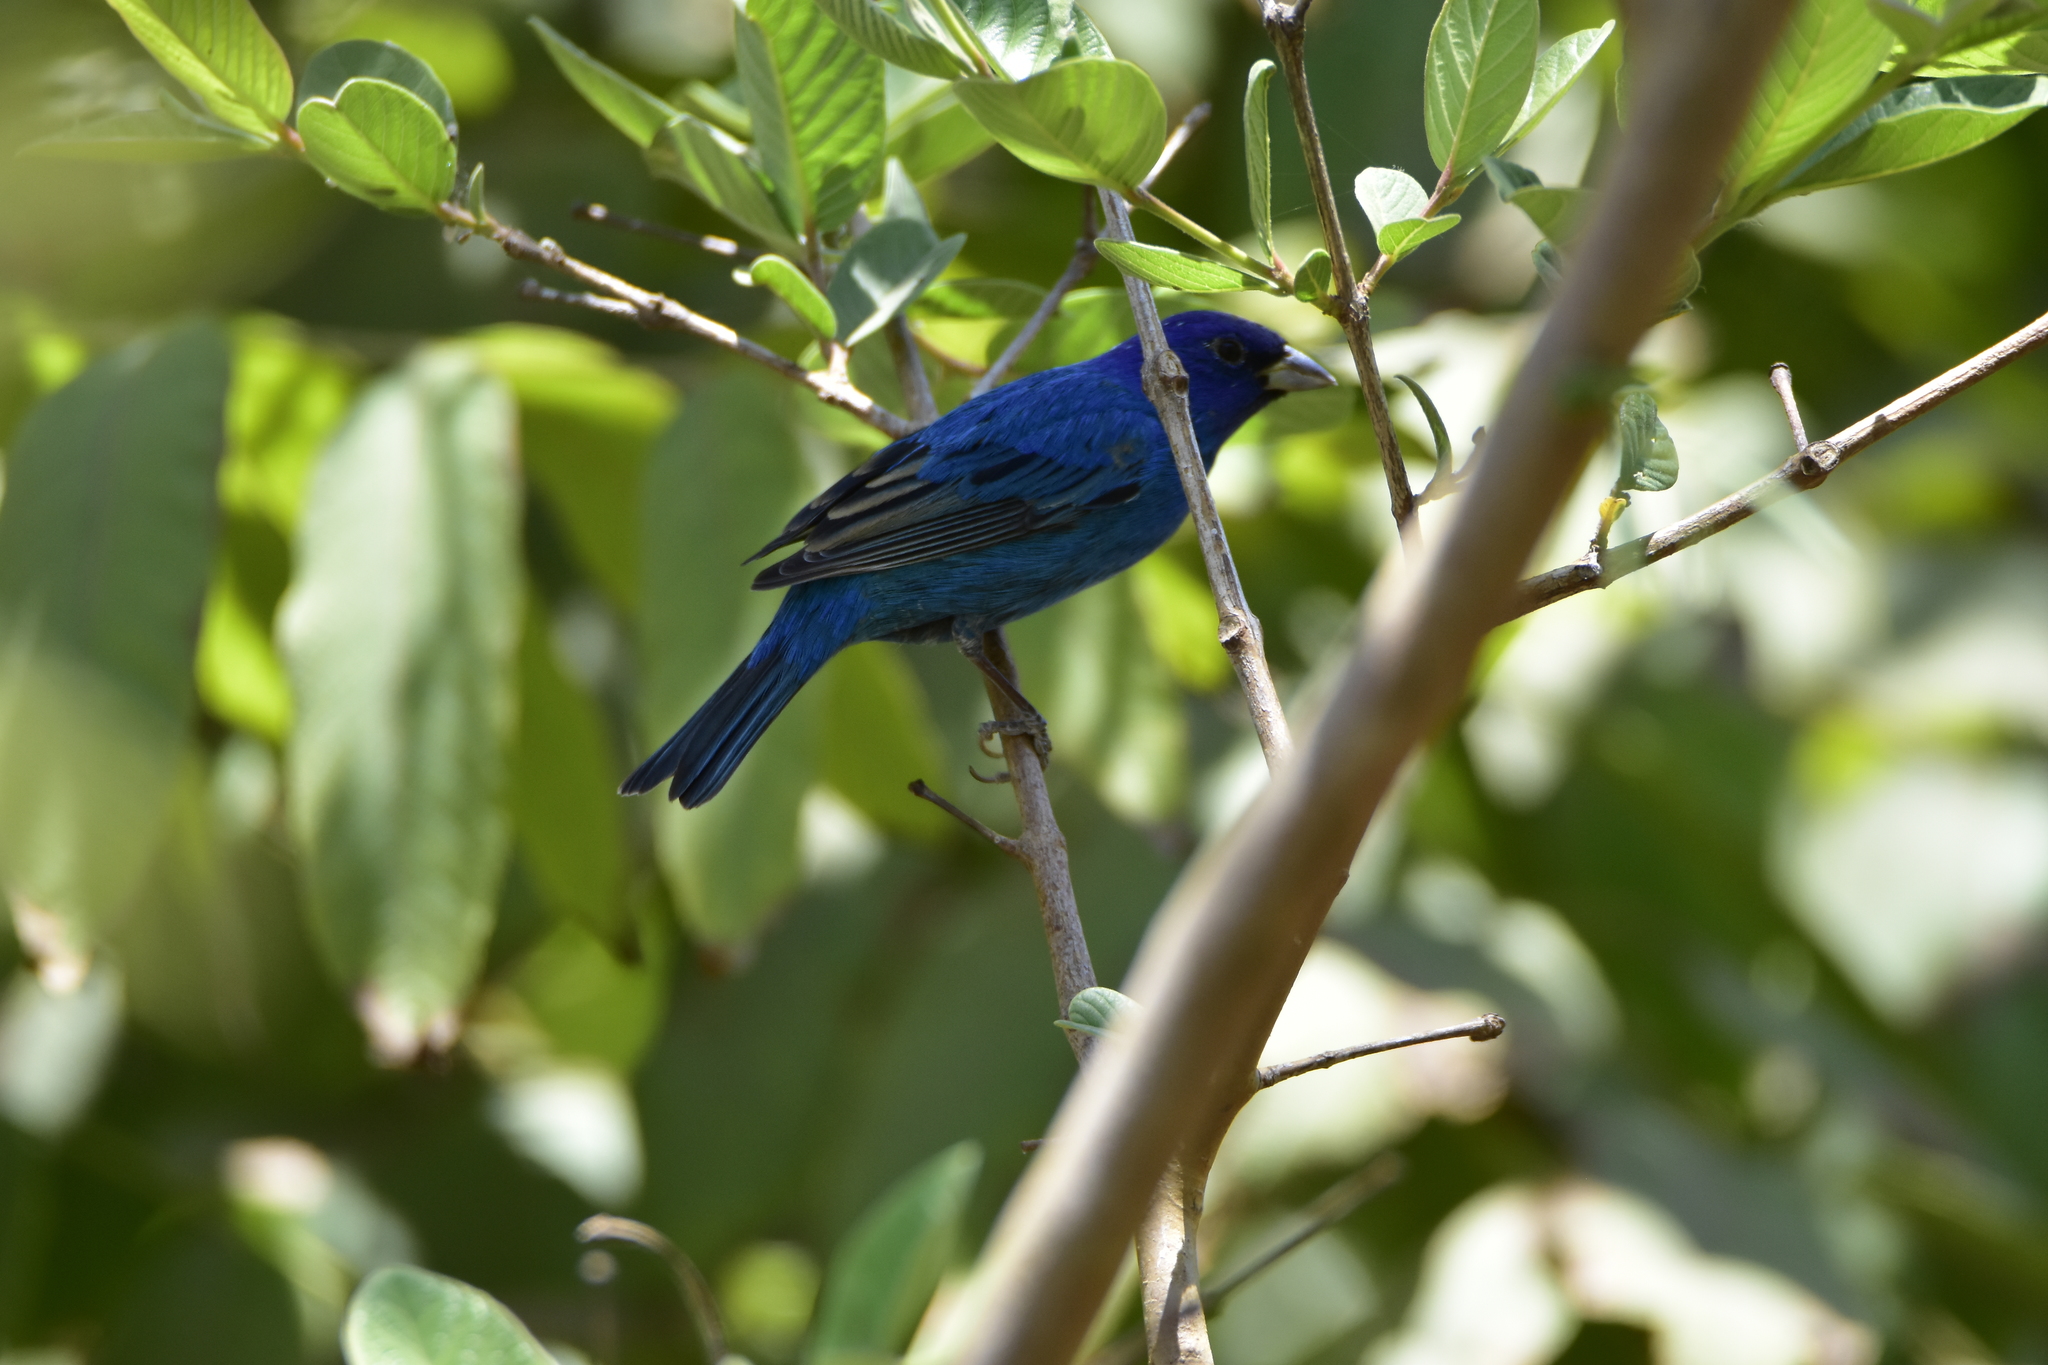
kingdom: Animalia
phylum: Chordata
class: Aves
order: Passeriformes
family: Cardinalidae
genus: Passerina
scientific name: Passerina cyanea
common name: Indigo bunting
